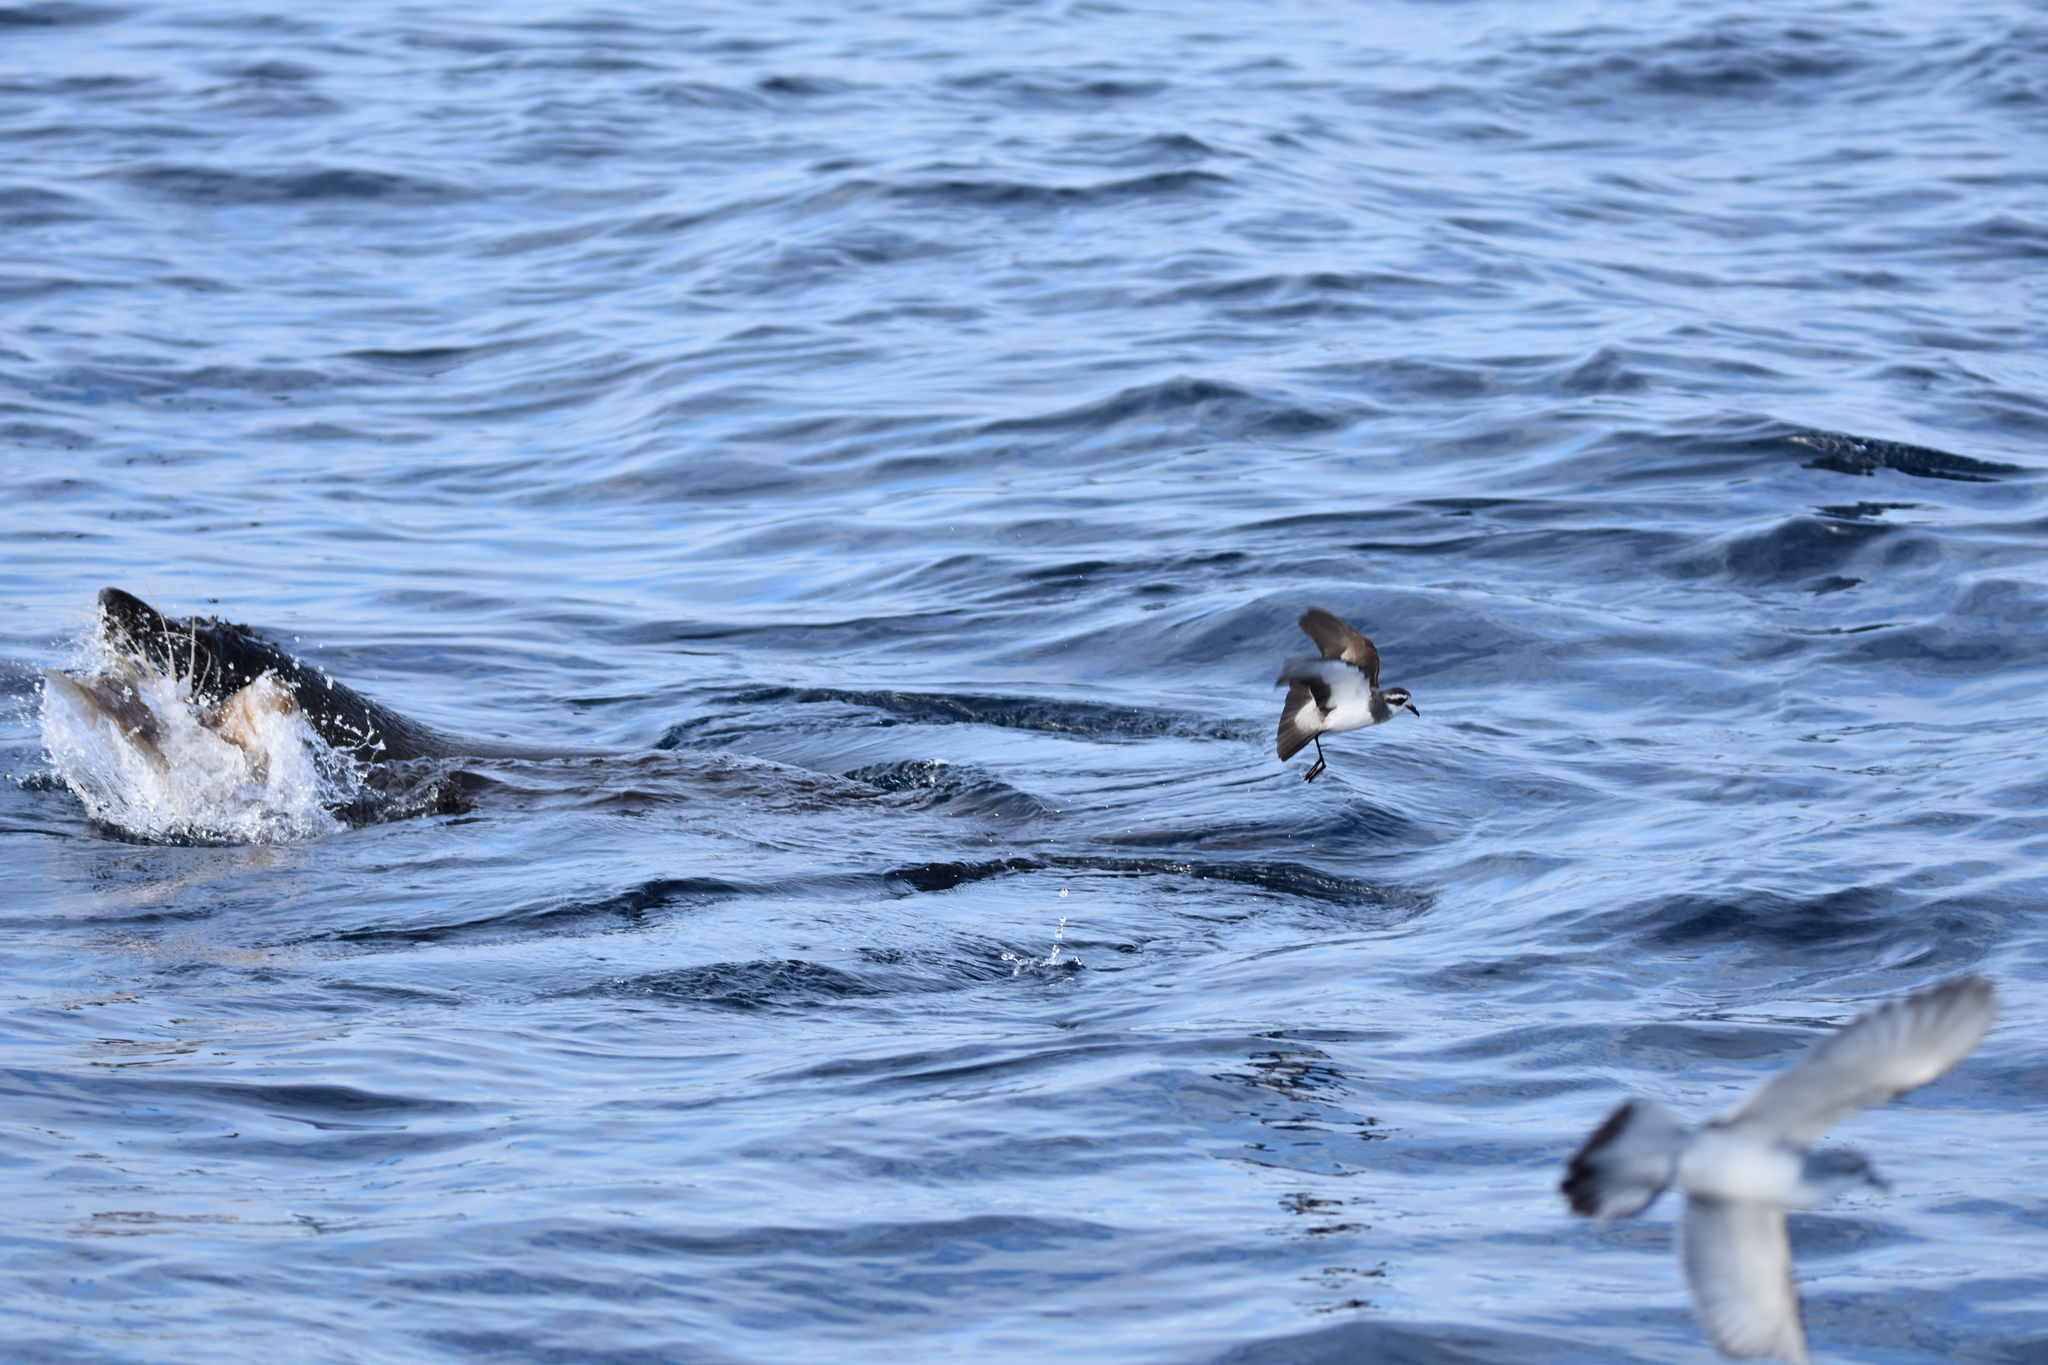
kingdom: Animalia
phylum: Chordata
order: Zeiformes
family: Zeidae
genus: Zeus
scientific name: Zeus faber
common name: John dory
